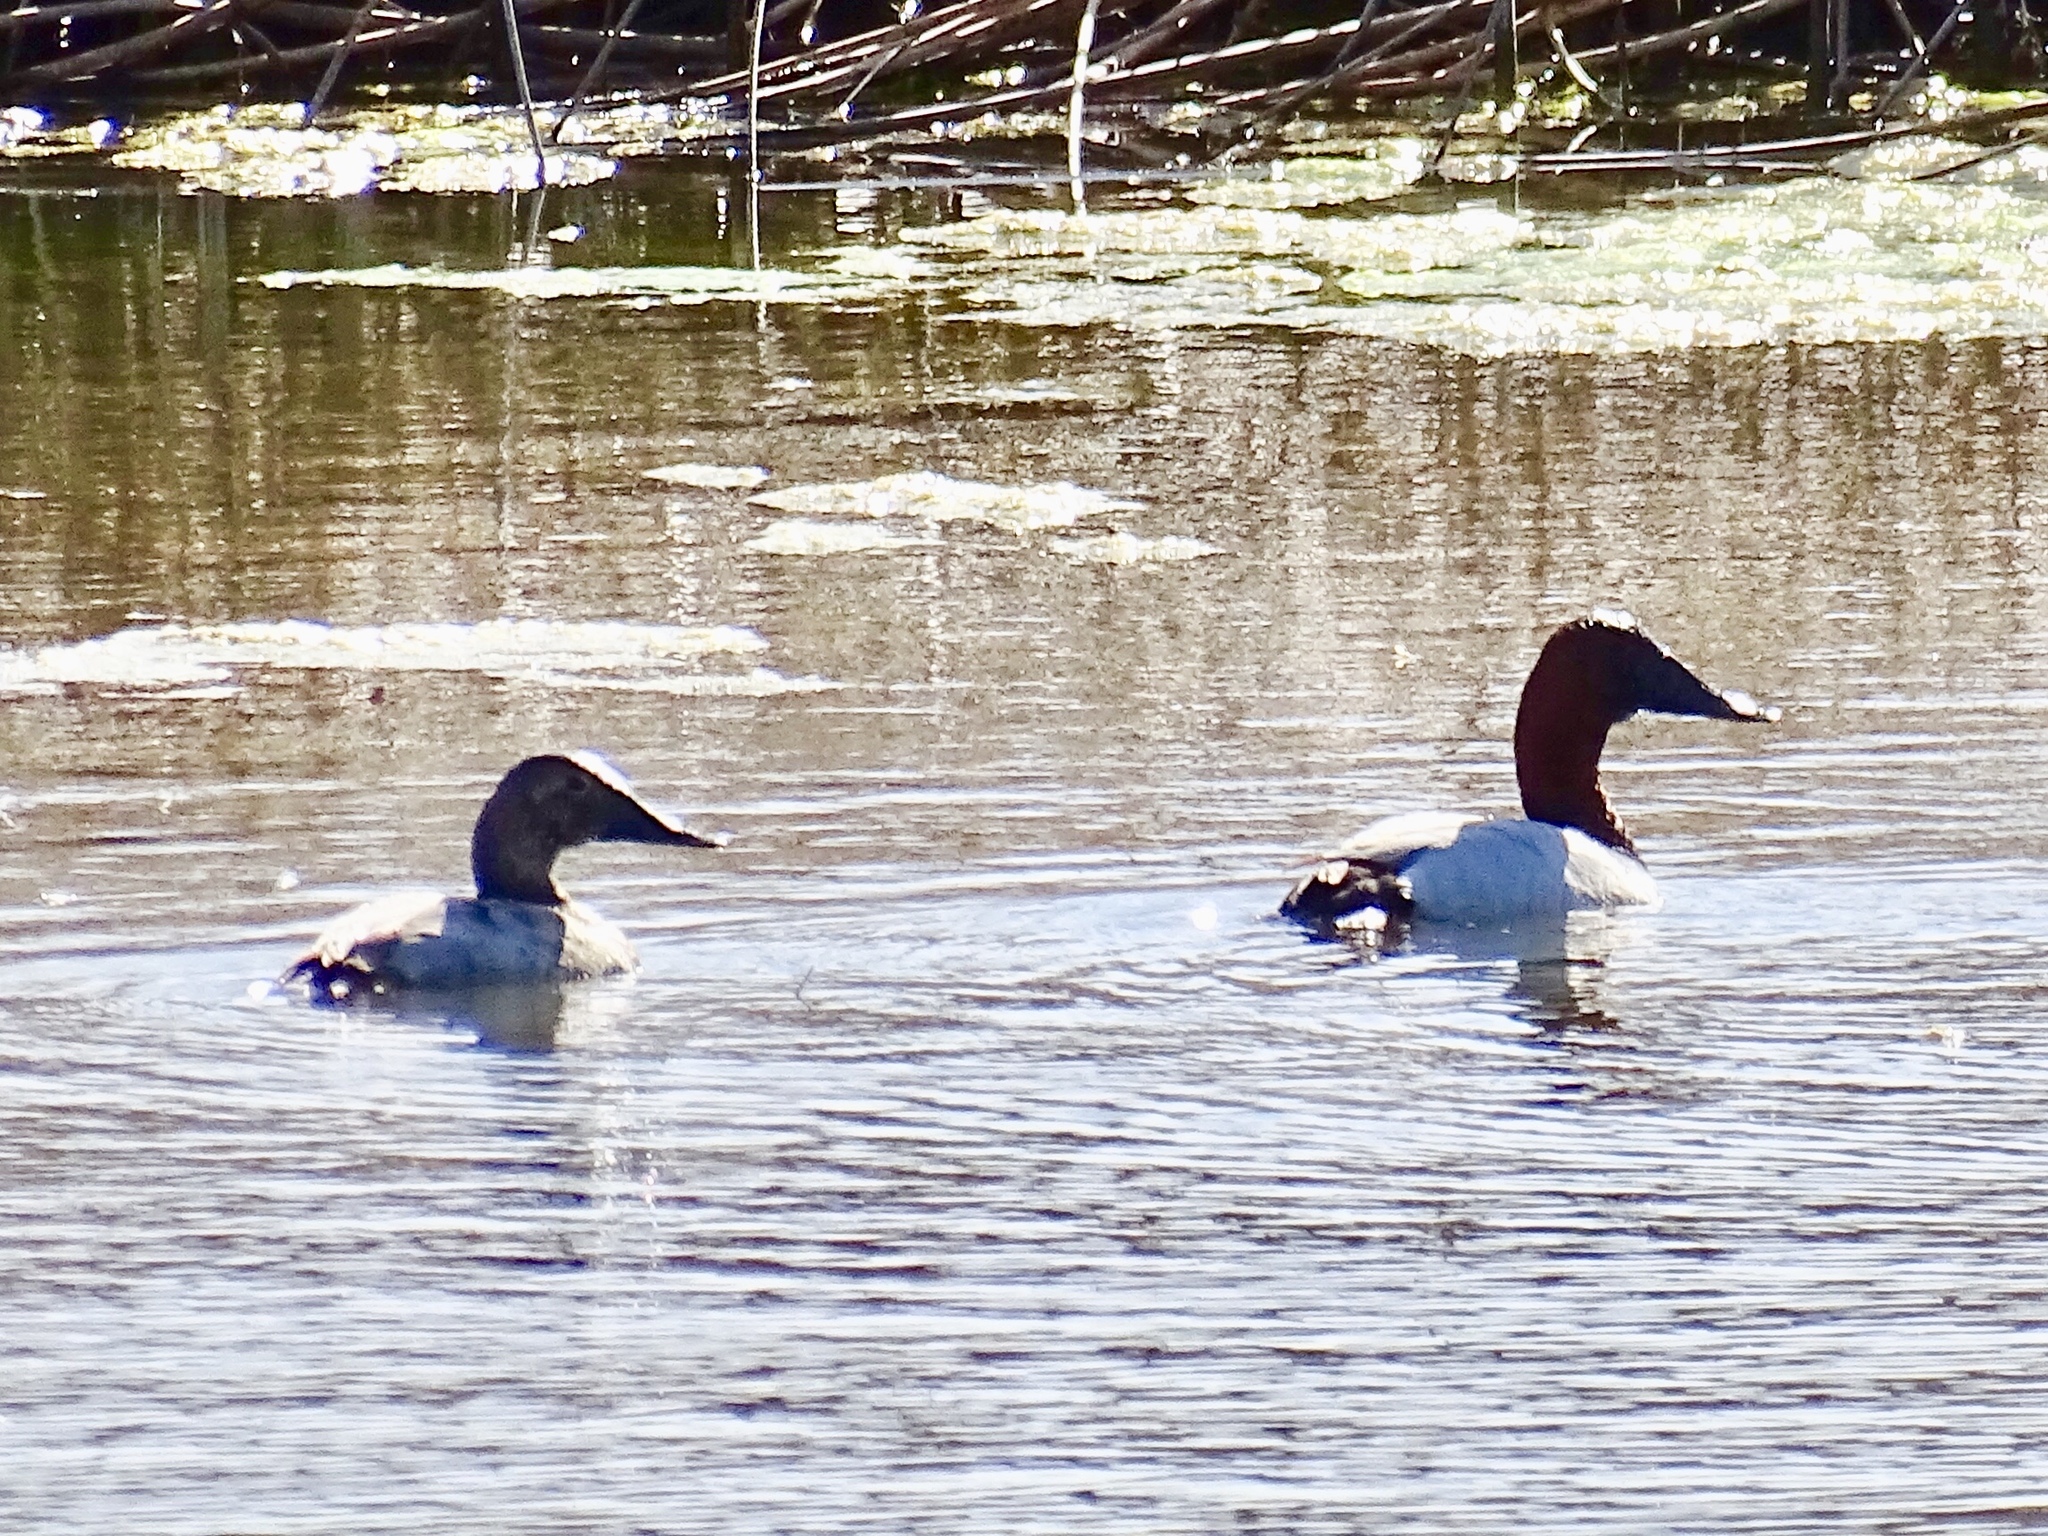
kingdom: Animalia
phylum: Chordata
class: Aves
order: Anseriformes
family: Anatidae
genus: Aythya
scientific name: Aythya valisineria
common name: Canvasback
